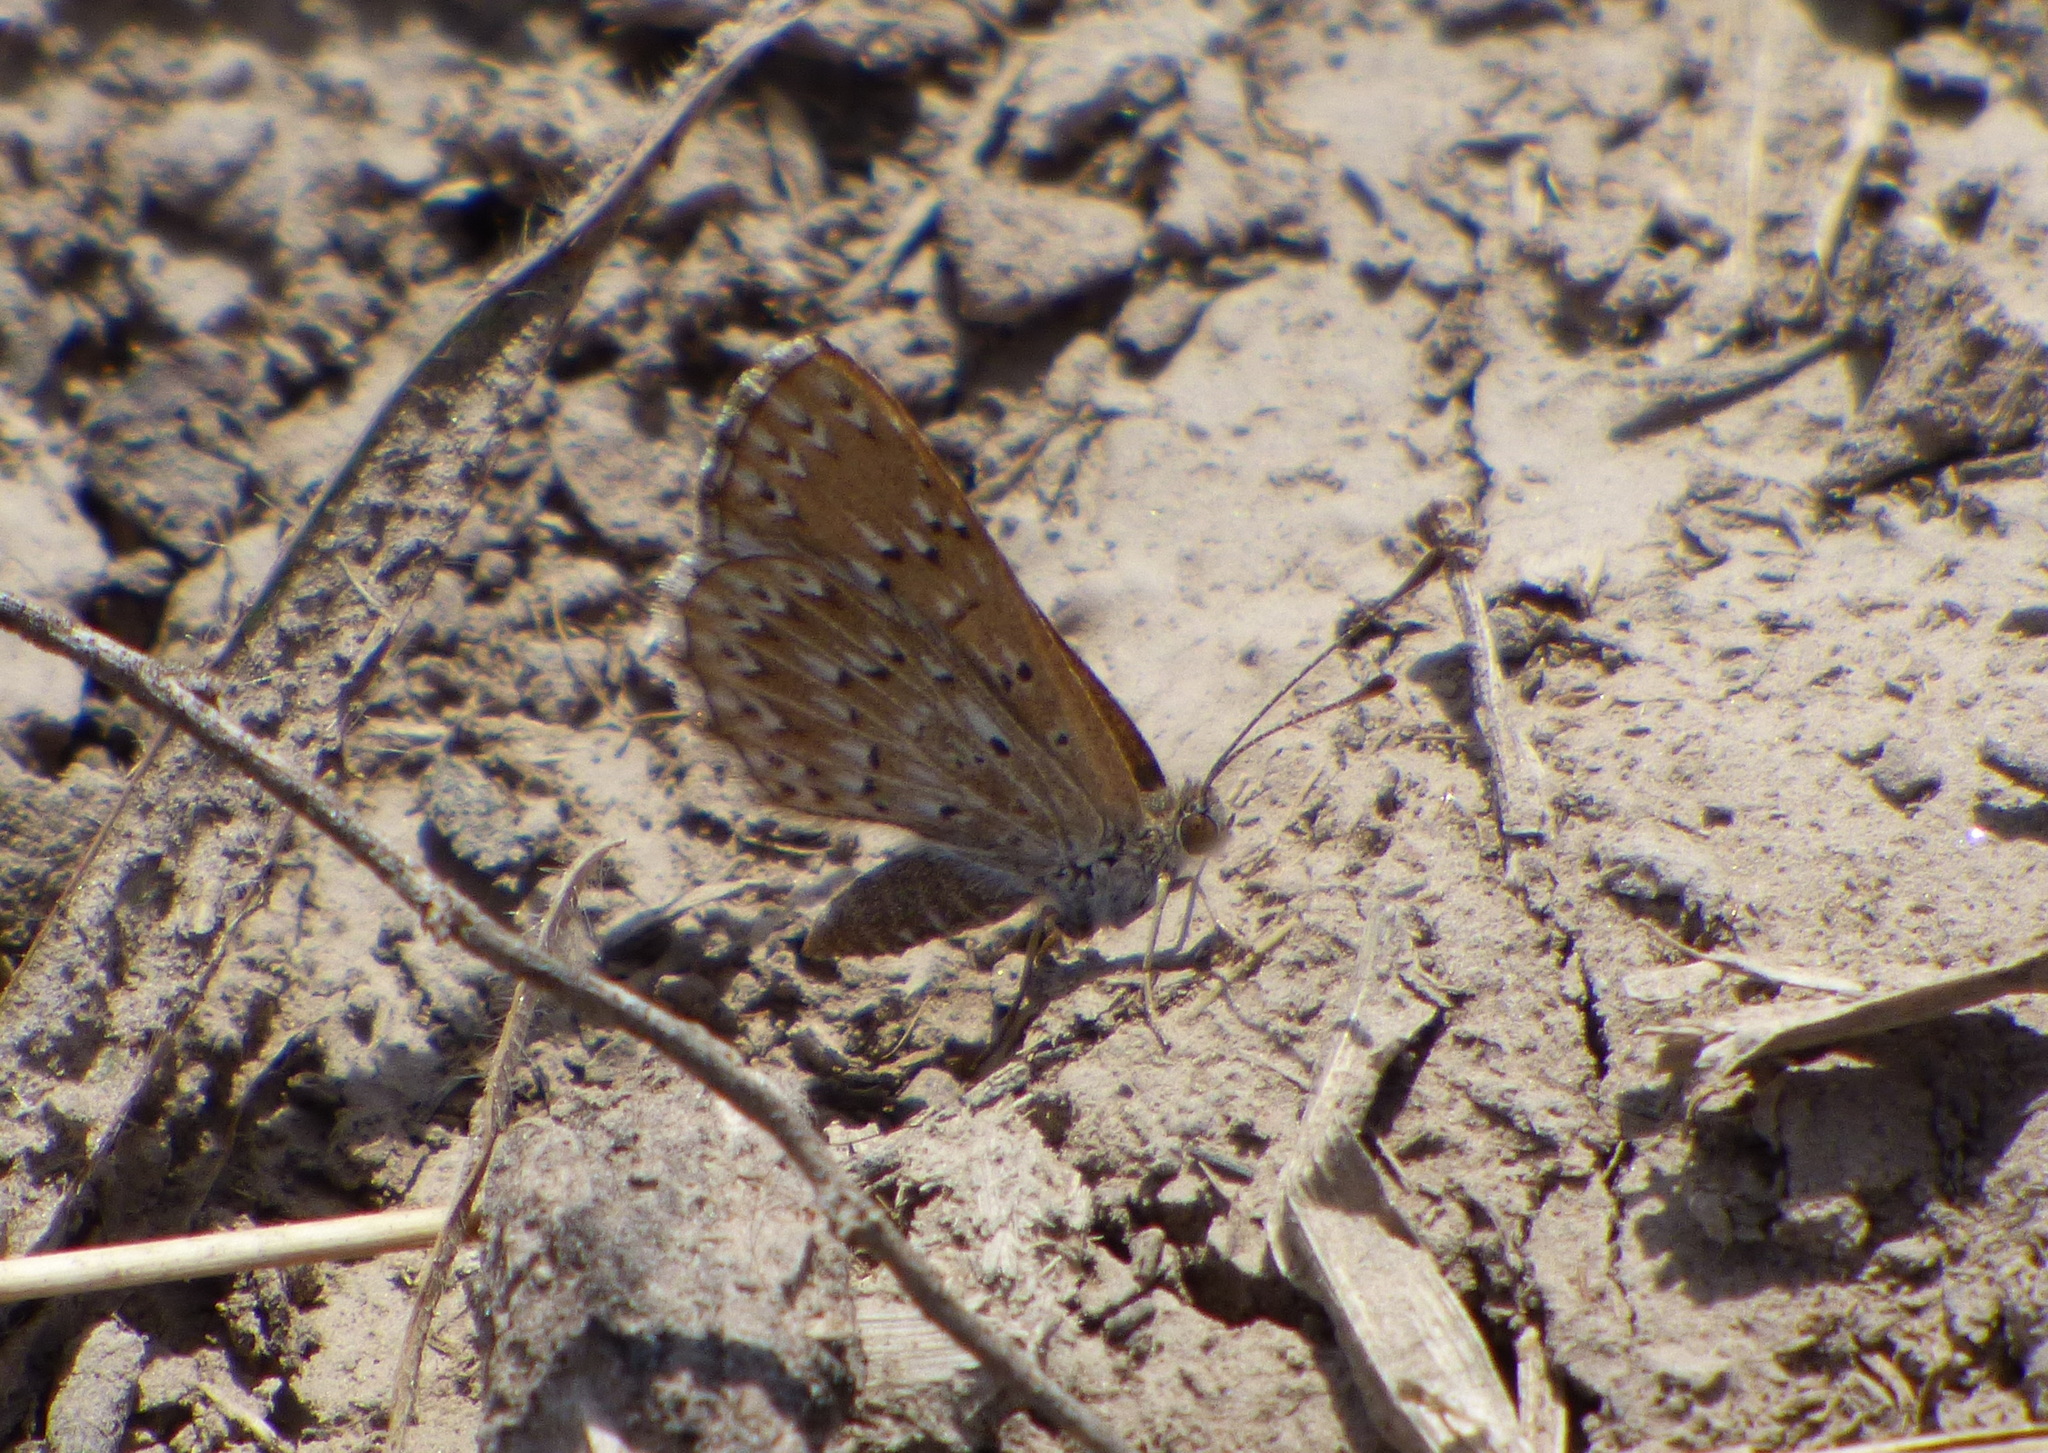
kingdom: Animalia
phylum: Arthropoda
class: Insecta
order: Lepidoptera
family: Riodinidae
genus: Zabuella
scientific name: Zabuella tenellus
